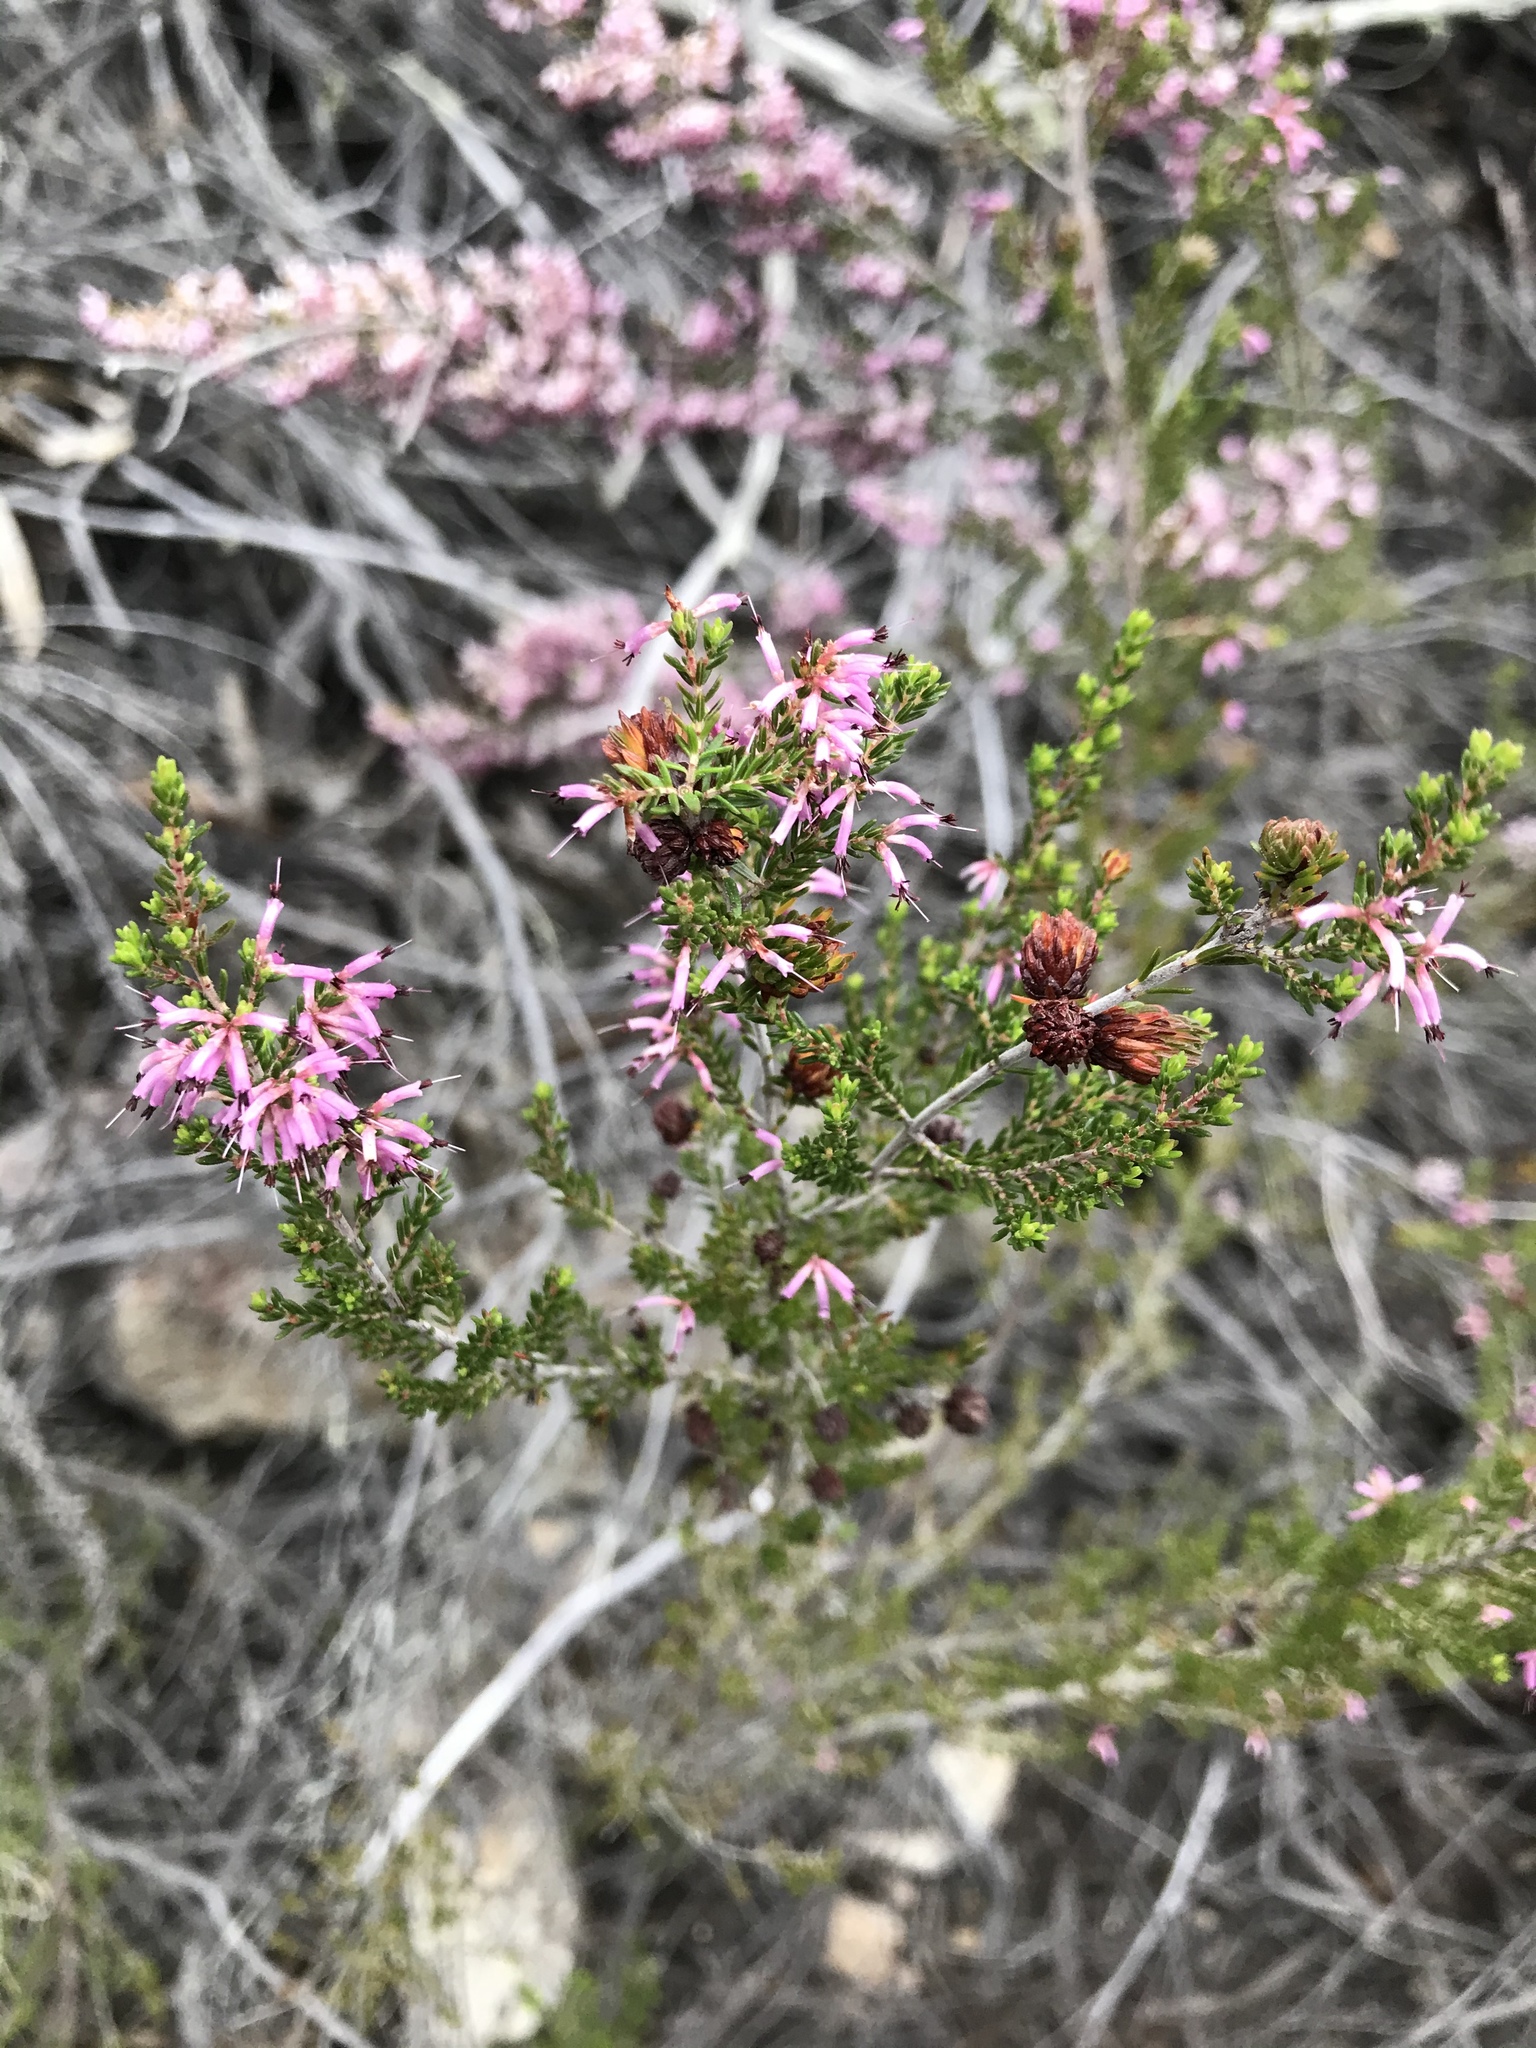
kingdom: Plantae
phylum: Tracheophyta
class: Magnoliopsida
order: Ericales
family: Ericaceae
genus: Erica
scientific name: Erica uberiflora
